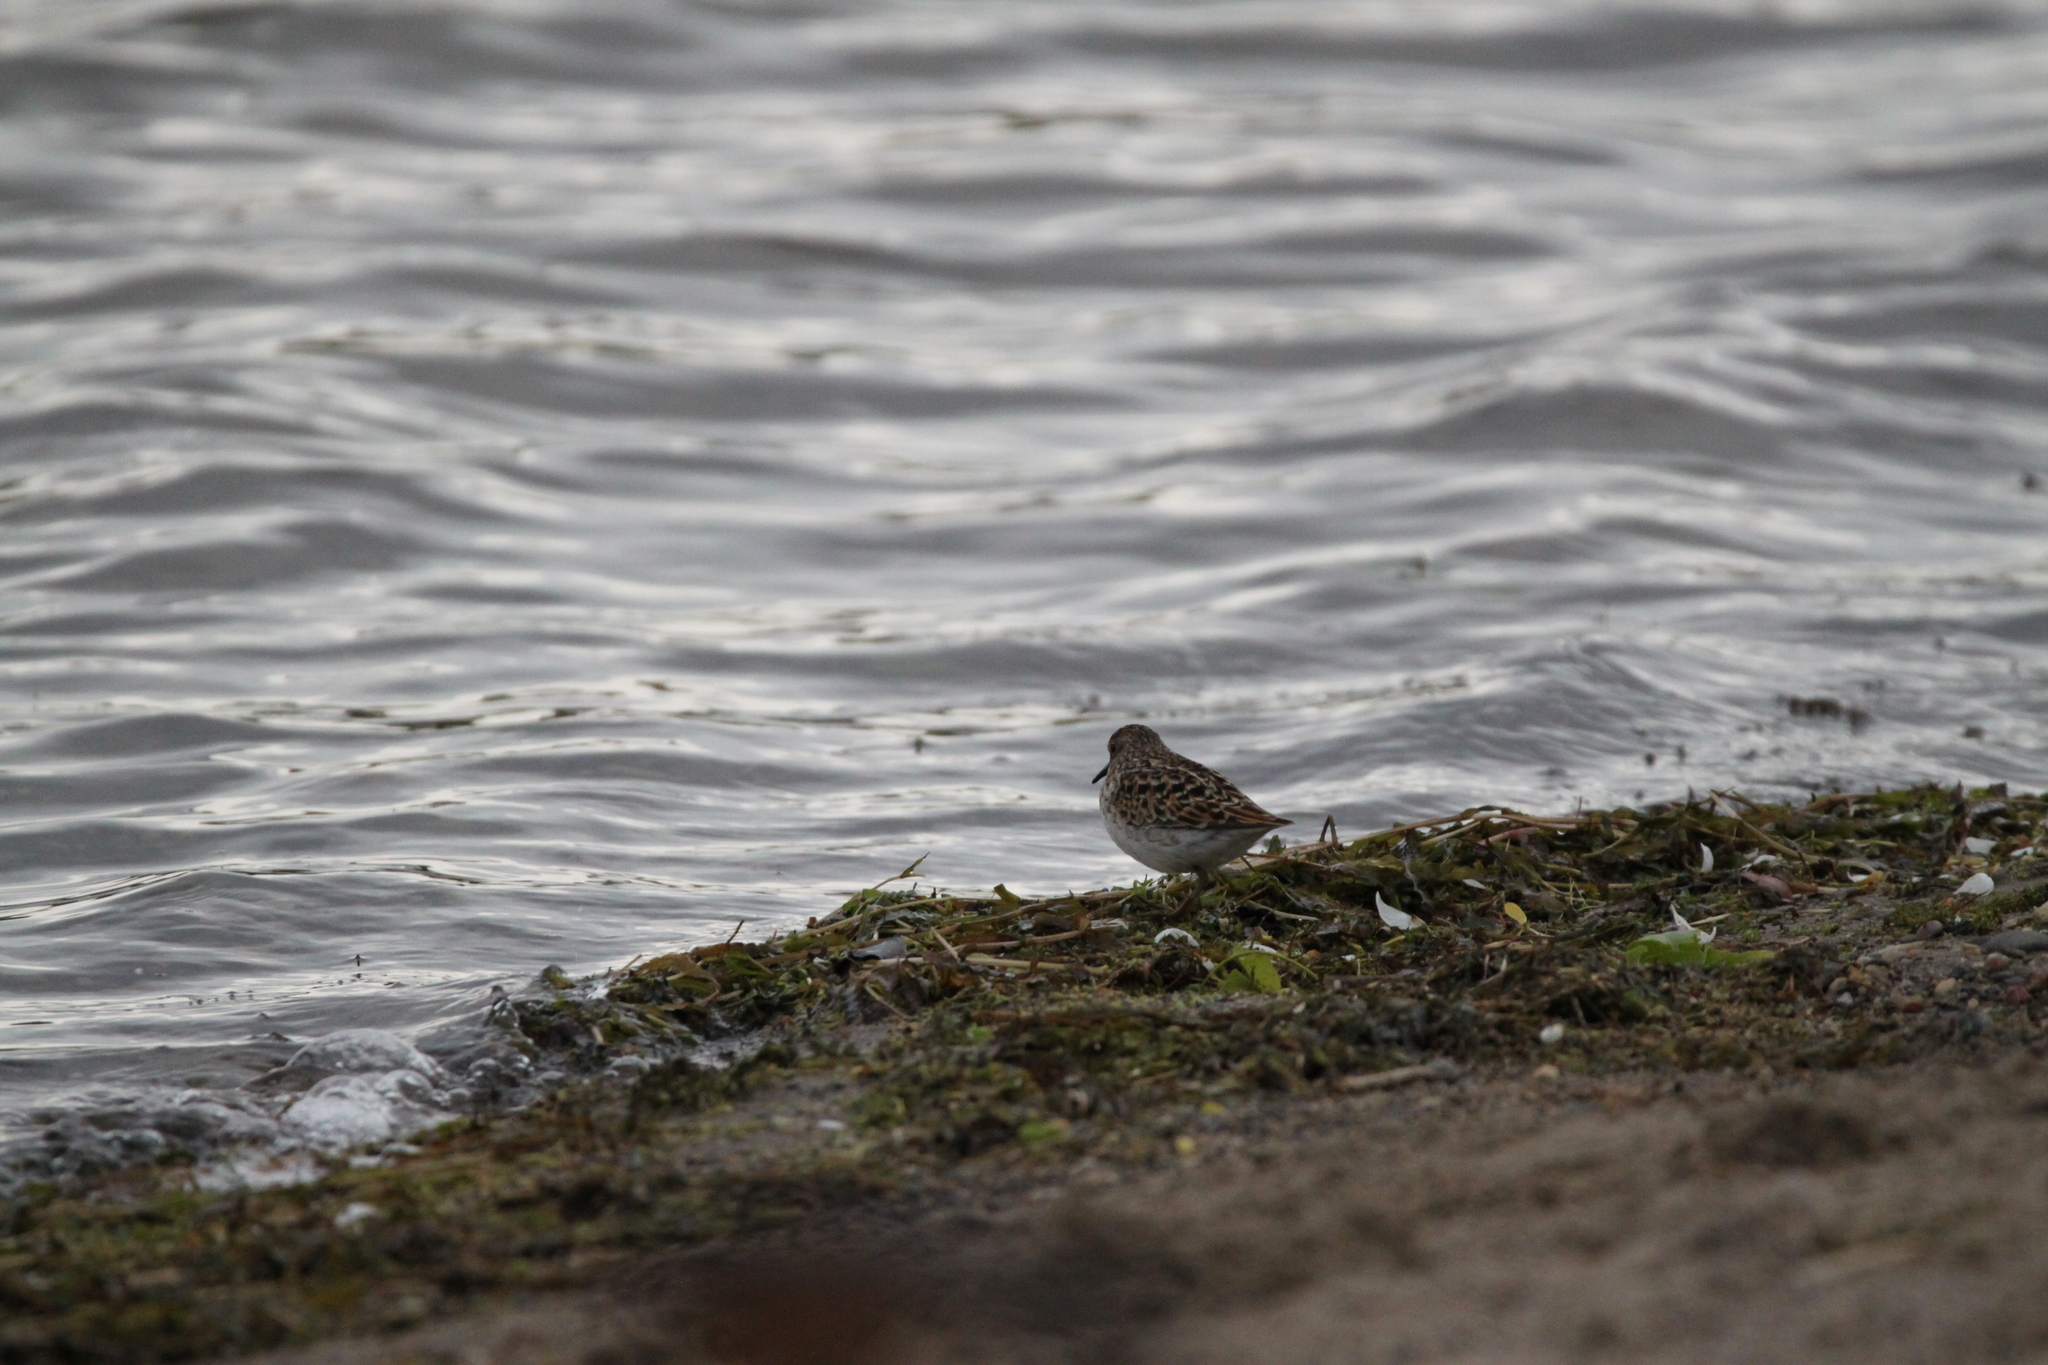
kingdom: Animalia
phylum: Chordata
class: Aves
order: Charadriiformes
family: Scolopacidae
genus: Calidris
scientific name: Calidris minutilla
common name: Least sandpiper
